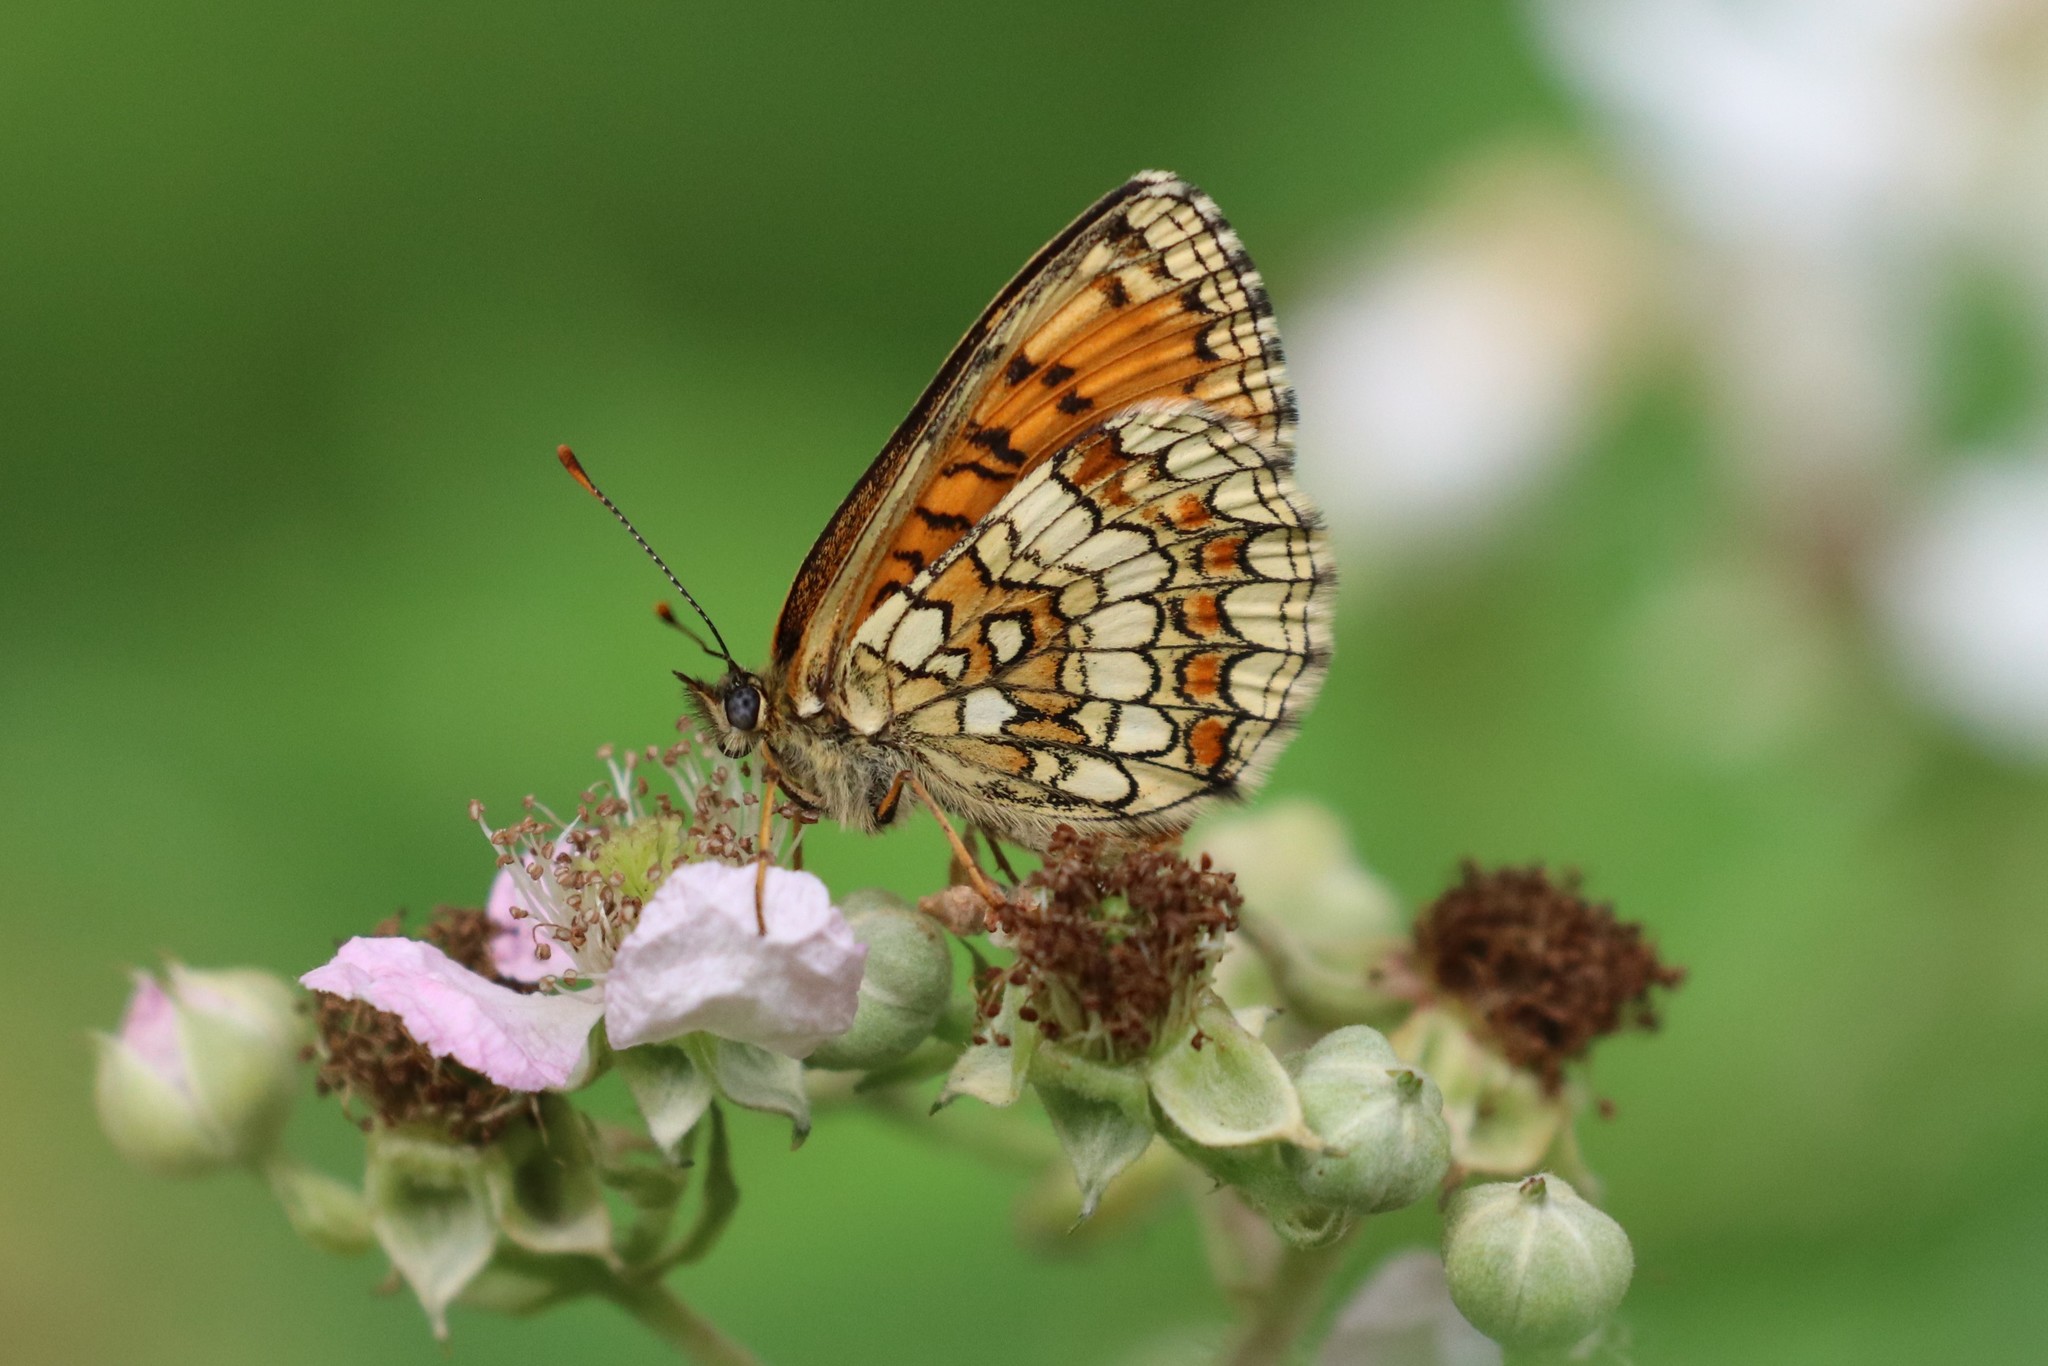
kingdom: Animalia
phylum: Arthropoda
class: Insecta
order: Lepidoptera
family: Nymphalidae
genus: Melitaea
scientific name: Melitaea athalia
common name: Heath fritillary
